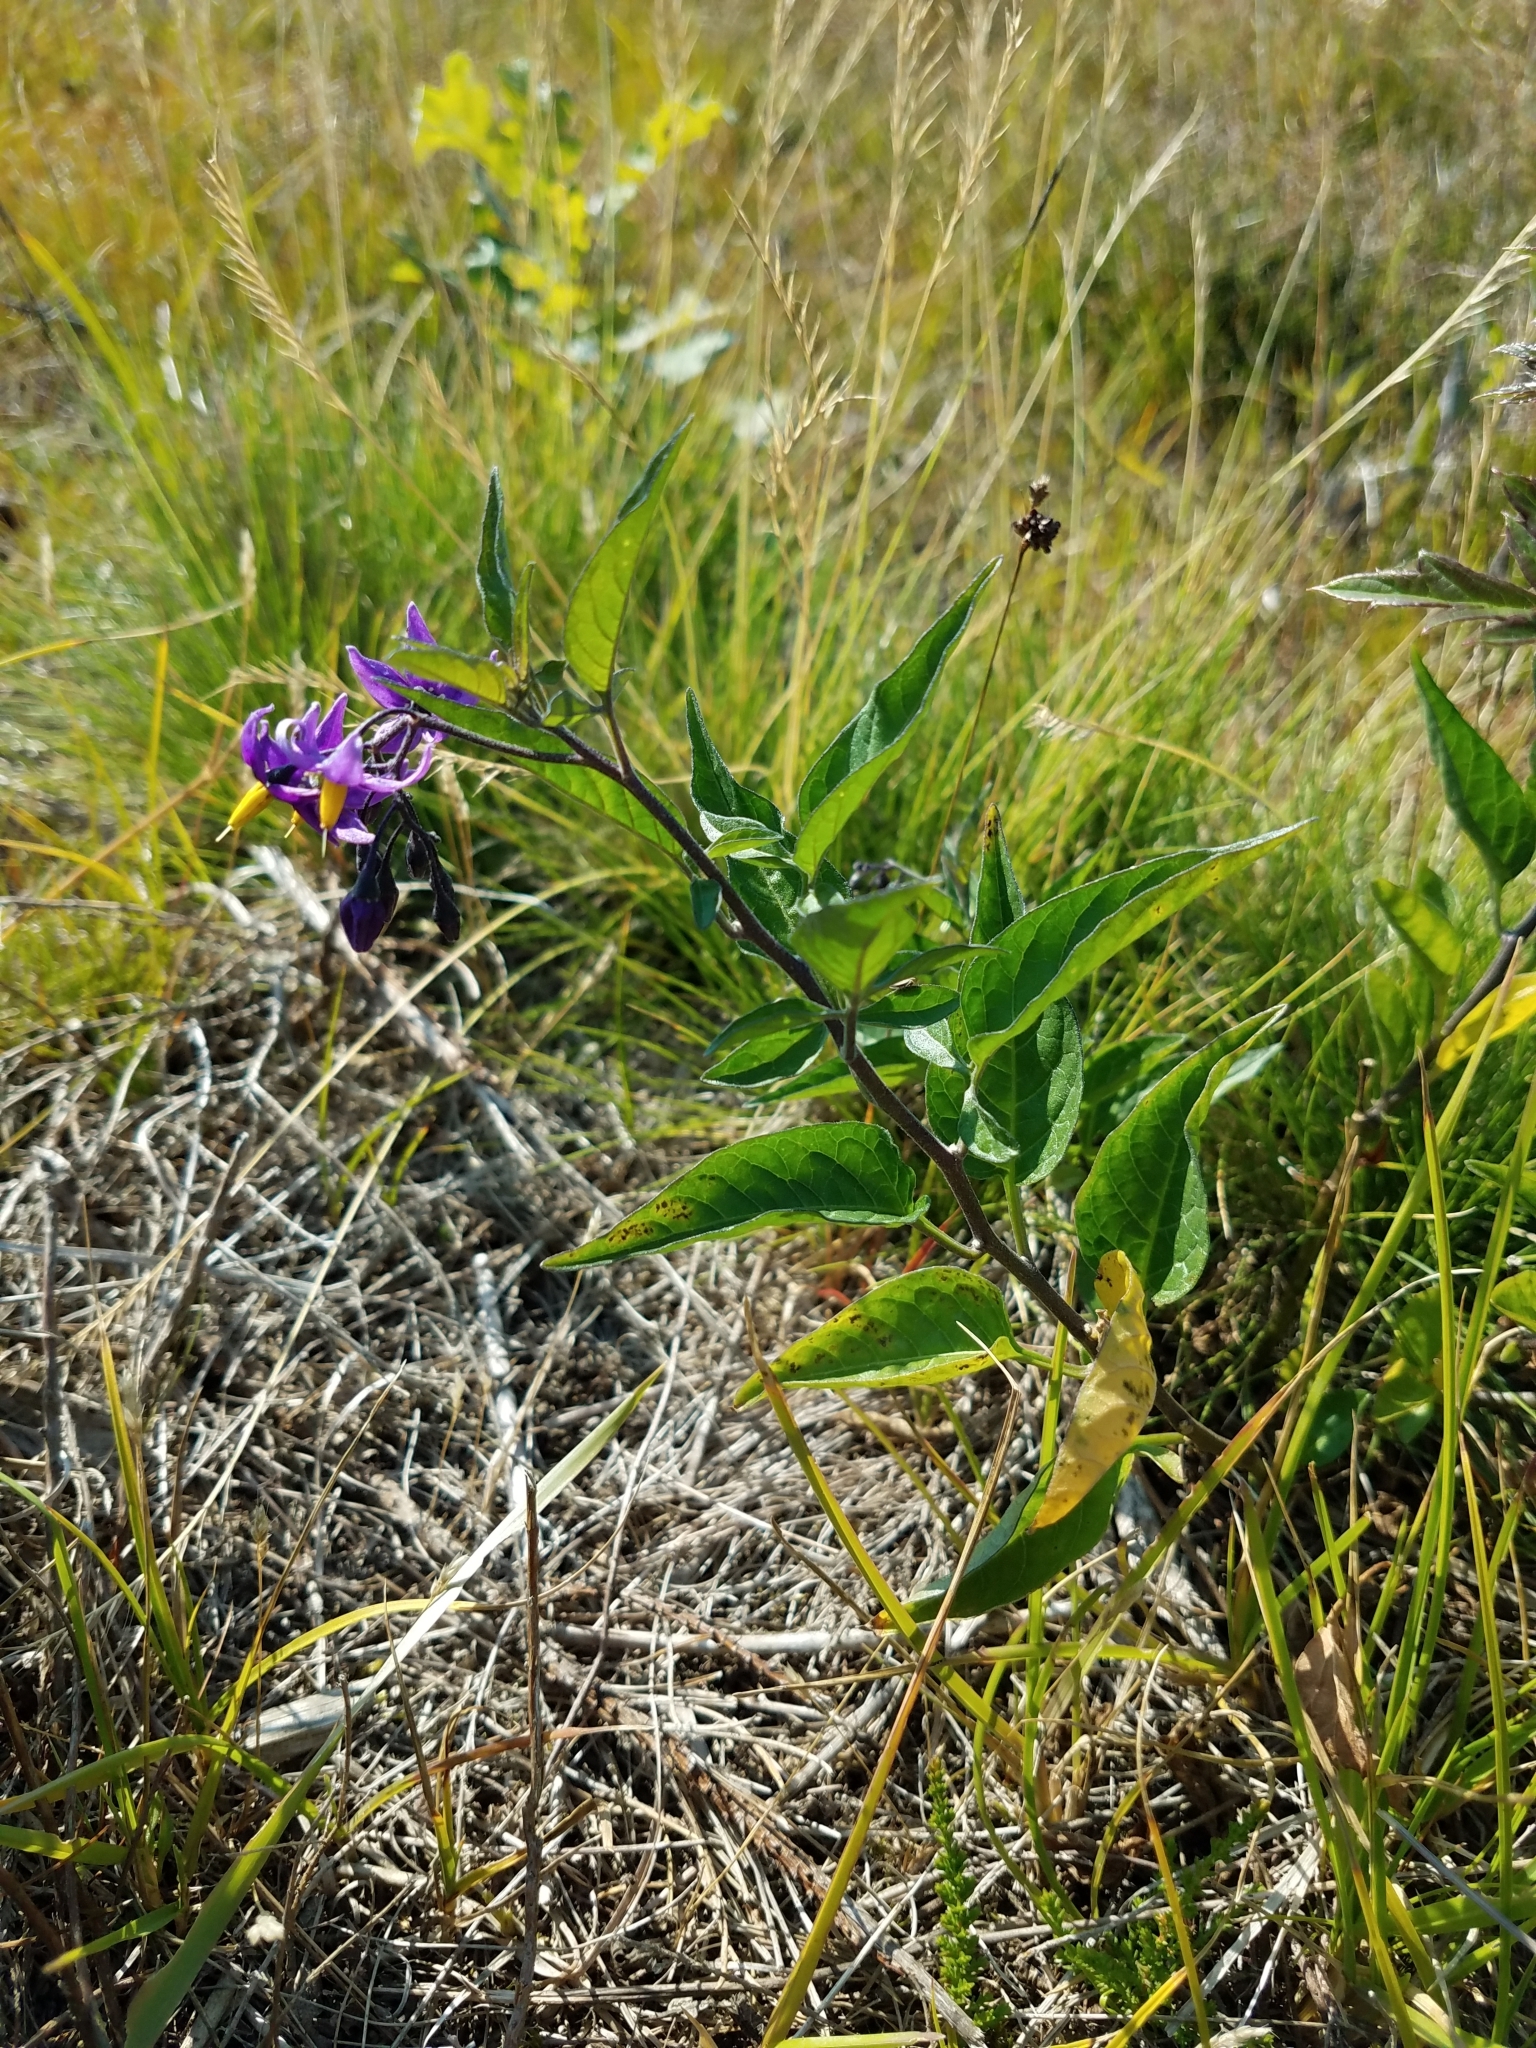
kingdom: Plantae
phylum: Tracheophyta
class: Magnoliopsida
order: Solanales
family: Solanaceae
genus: Solanum
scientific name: Solanum dulcamara
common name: Climbing nightshade
